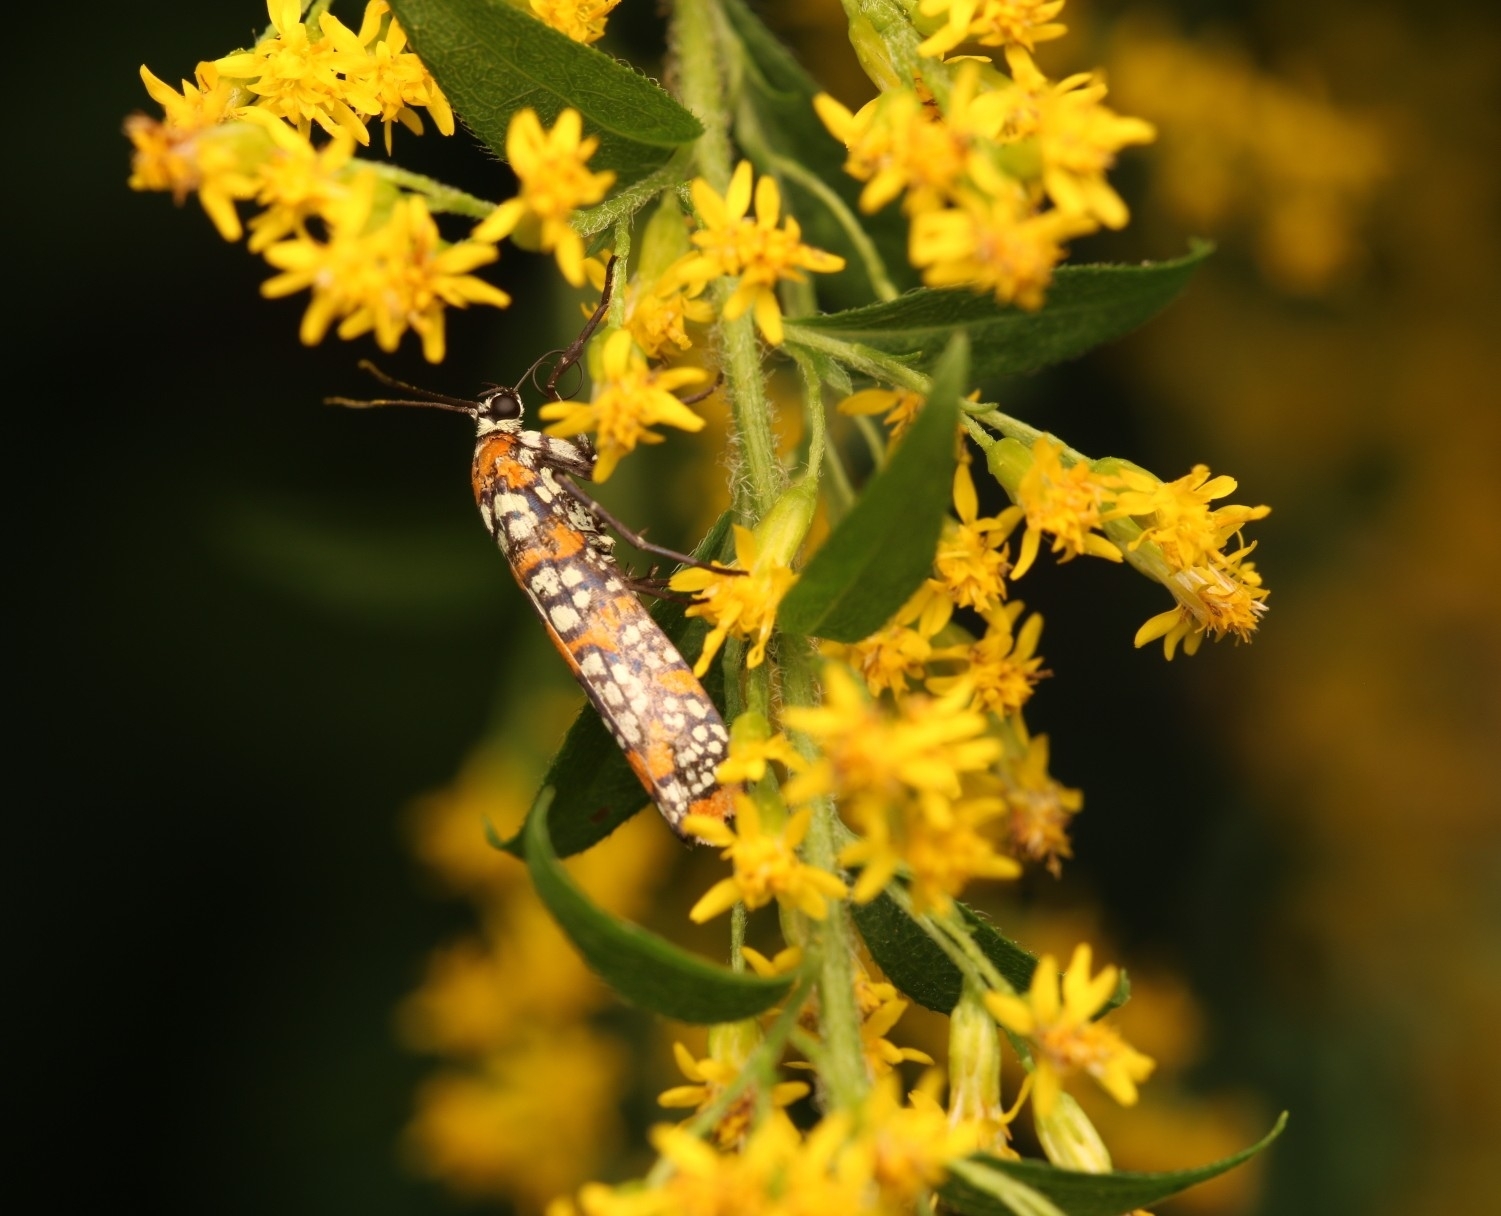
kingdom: Animalia
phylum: Arthropoda
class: Insecta
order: Lepidoptera
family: Attevidae
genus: Atteva
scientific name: Atteva punctella
